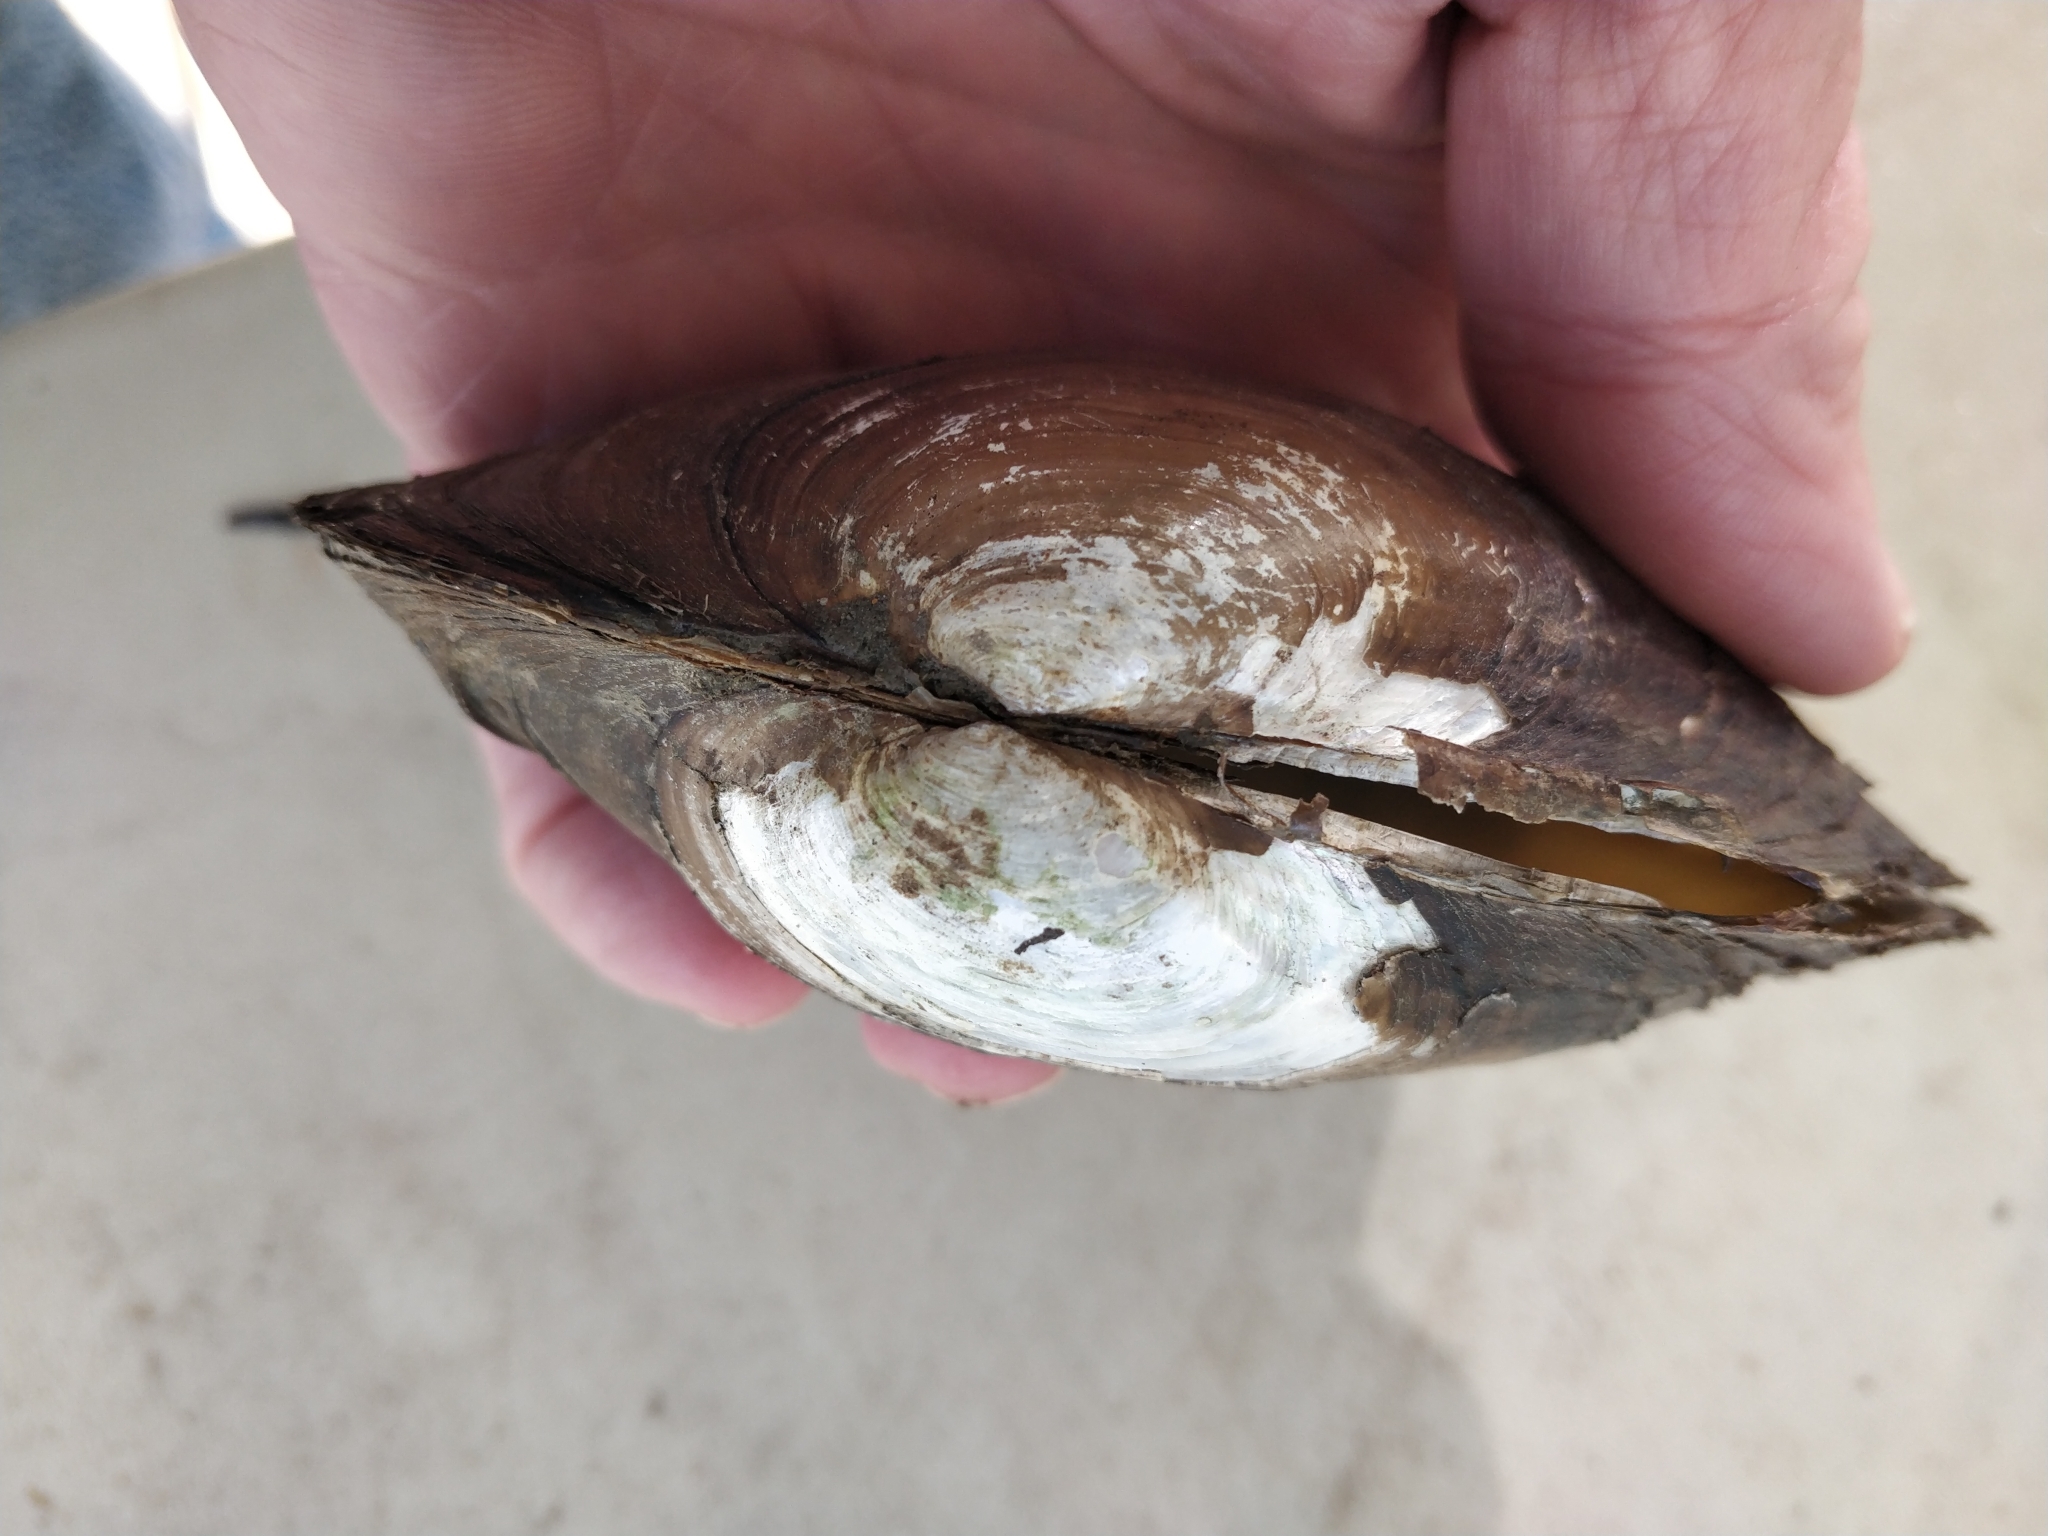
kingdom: Animalia
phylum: Mollusca
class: Bivalvia
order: Unionida
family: Unionidae
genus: Pyganodon
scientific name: Pyganodon grandis
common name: Giant floater
